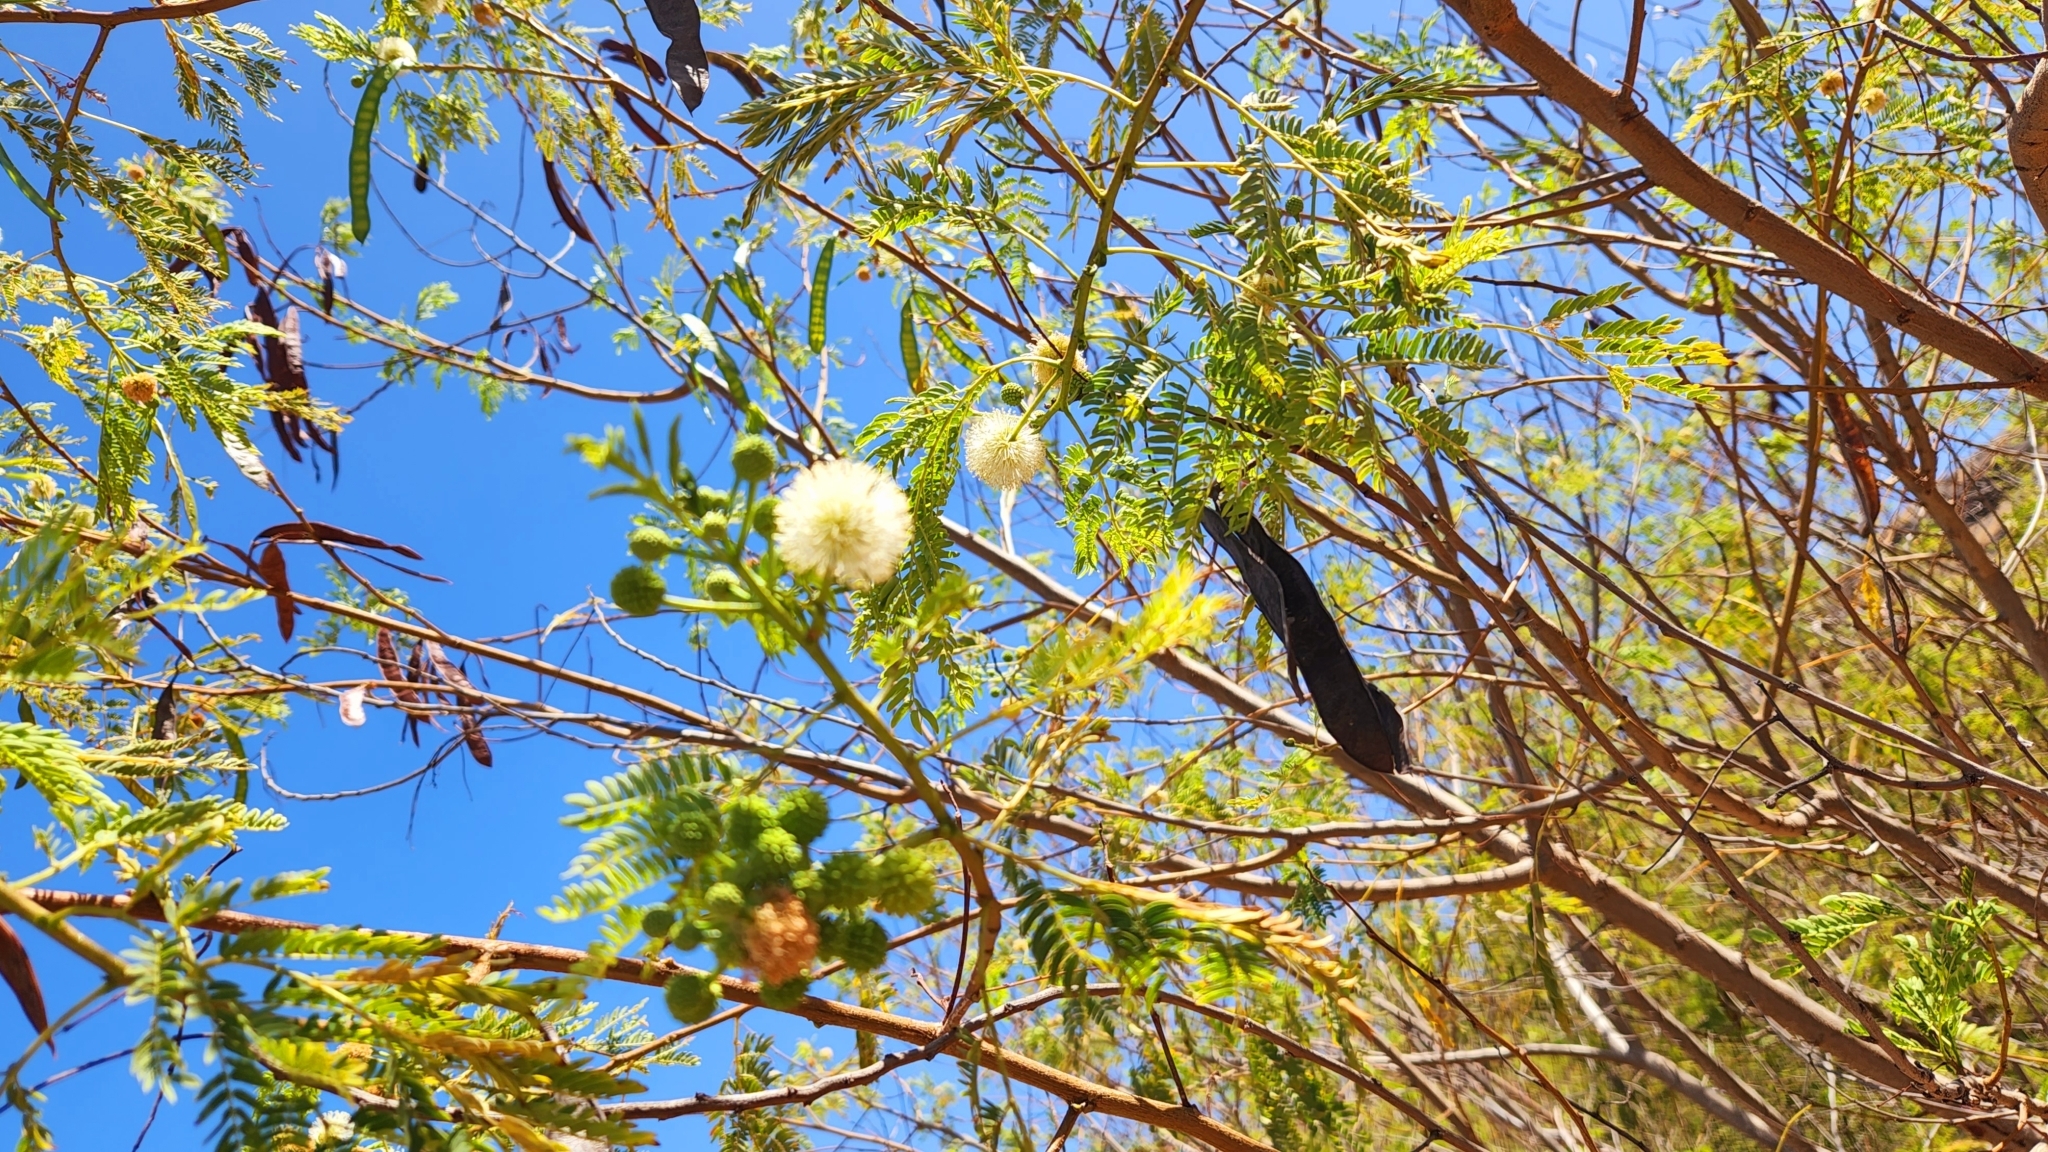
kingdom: Plantae
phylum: Tracheophyta
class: Magnoliopsida
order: Fabales
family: Fabaceae
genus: Leucaena
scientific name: Leucaena leucocephala
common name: White leadtree
